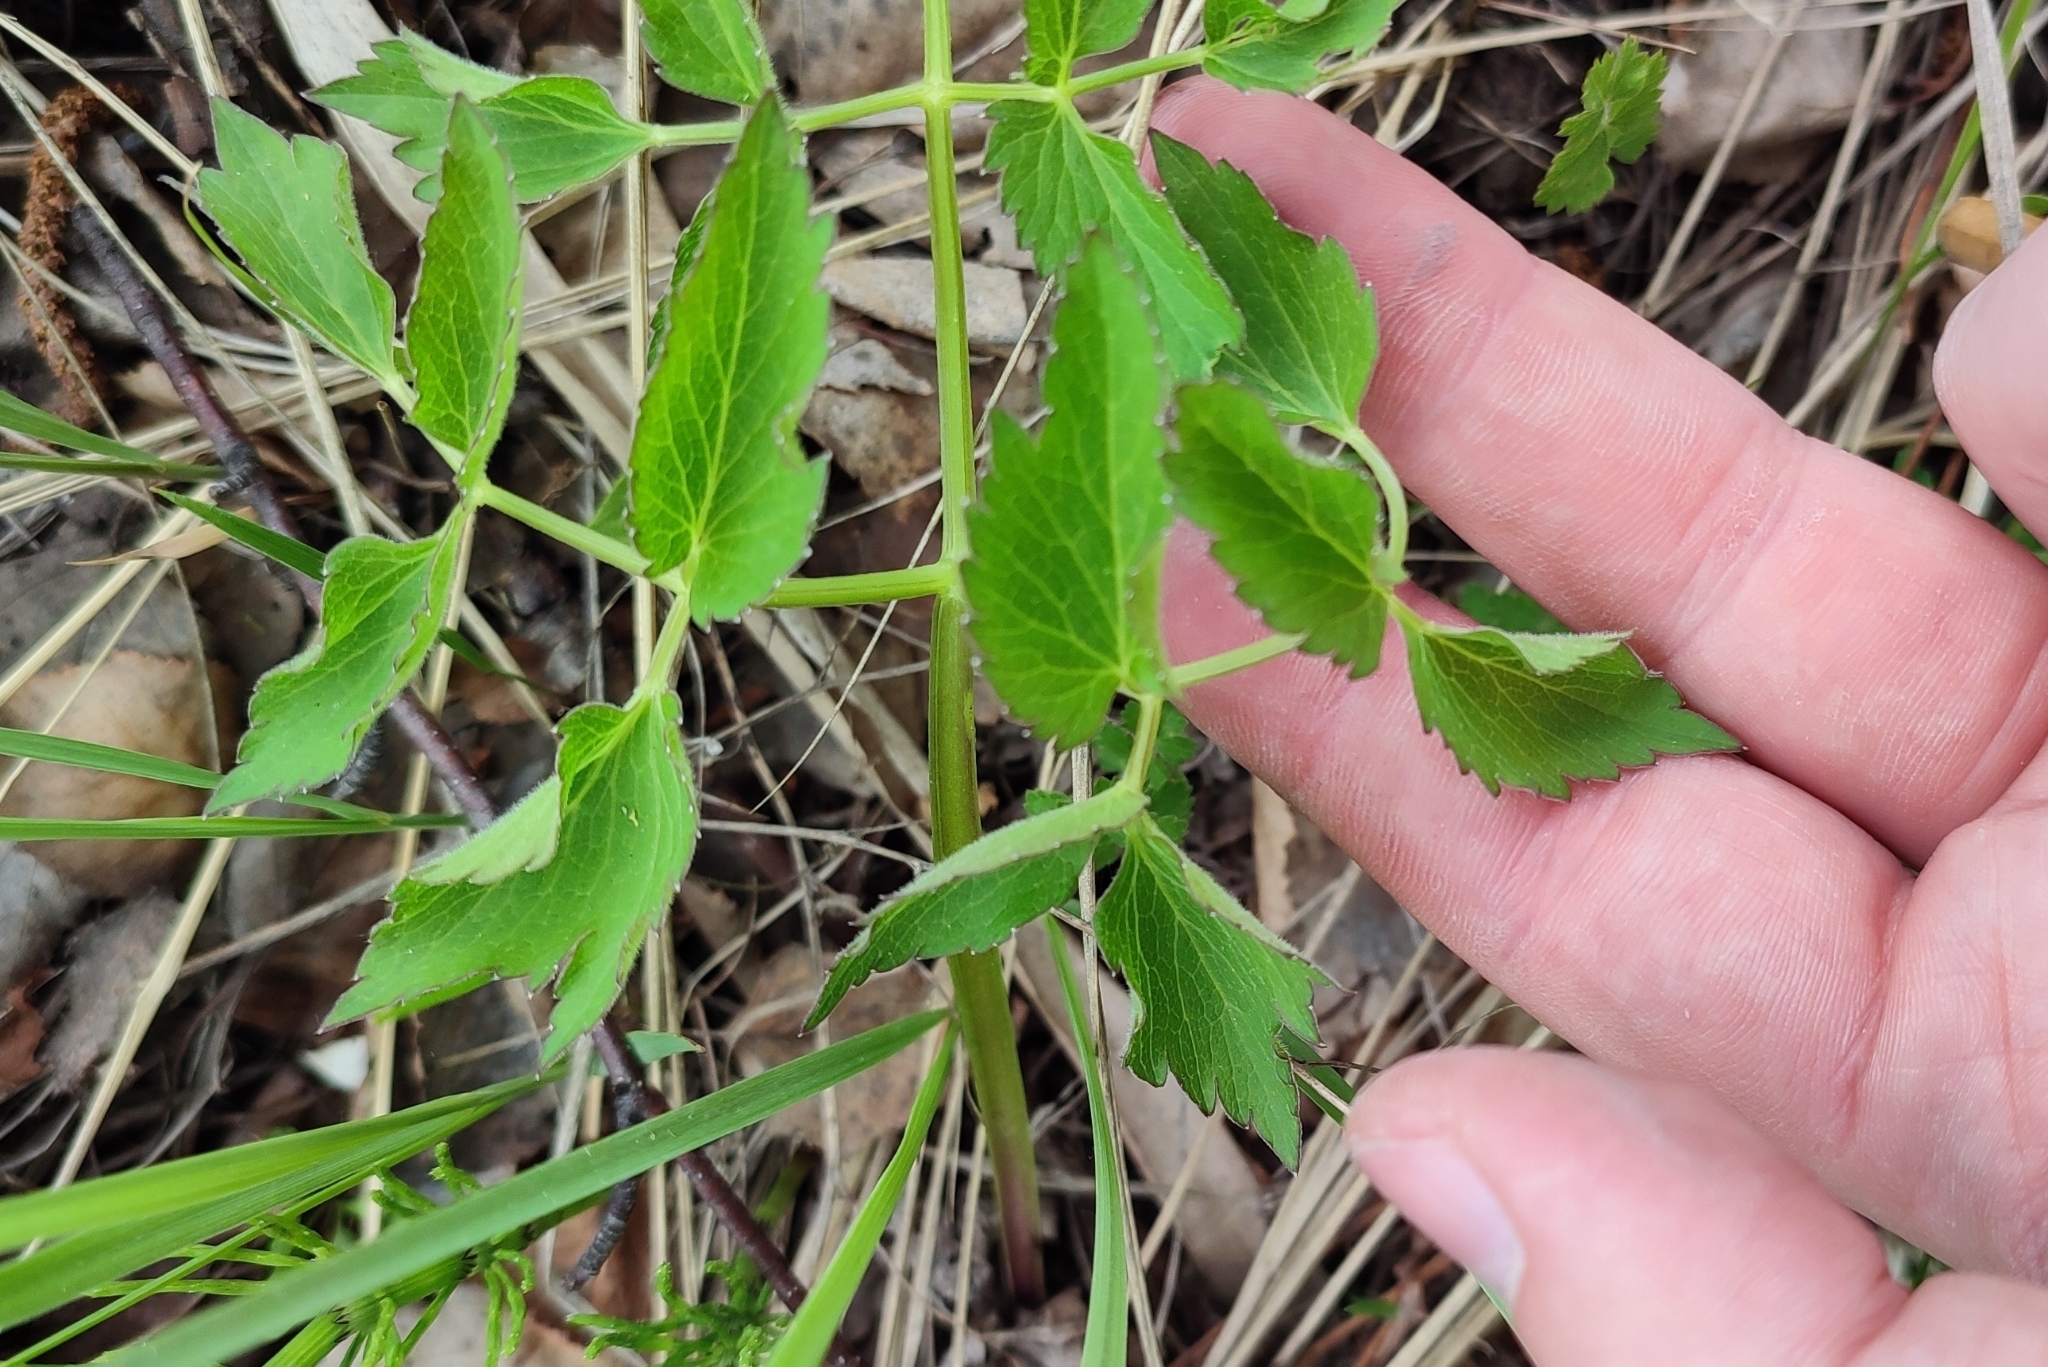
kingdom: Plantae
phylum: Tracheophyta
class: Magnoliopsida
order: Apiales
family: Apiaceae
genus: Ostericum
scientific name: Ostericum palustre
